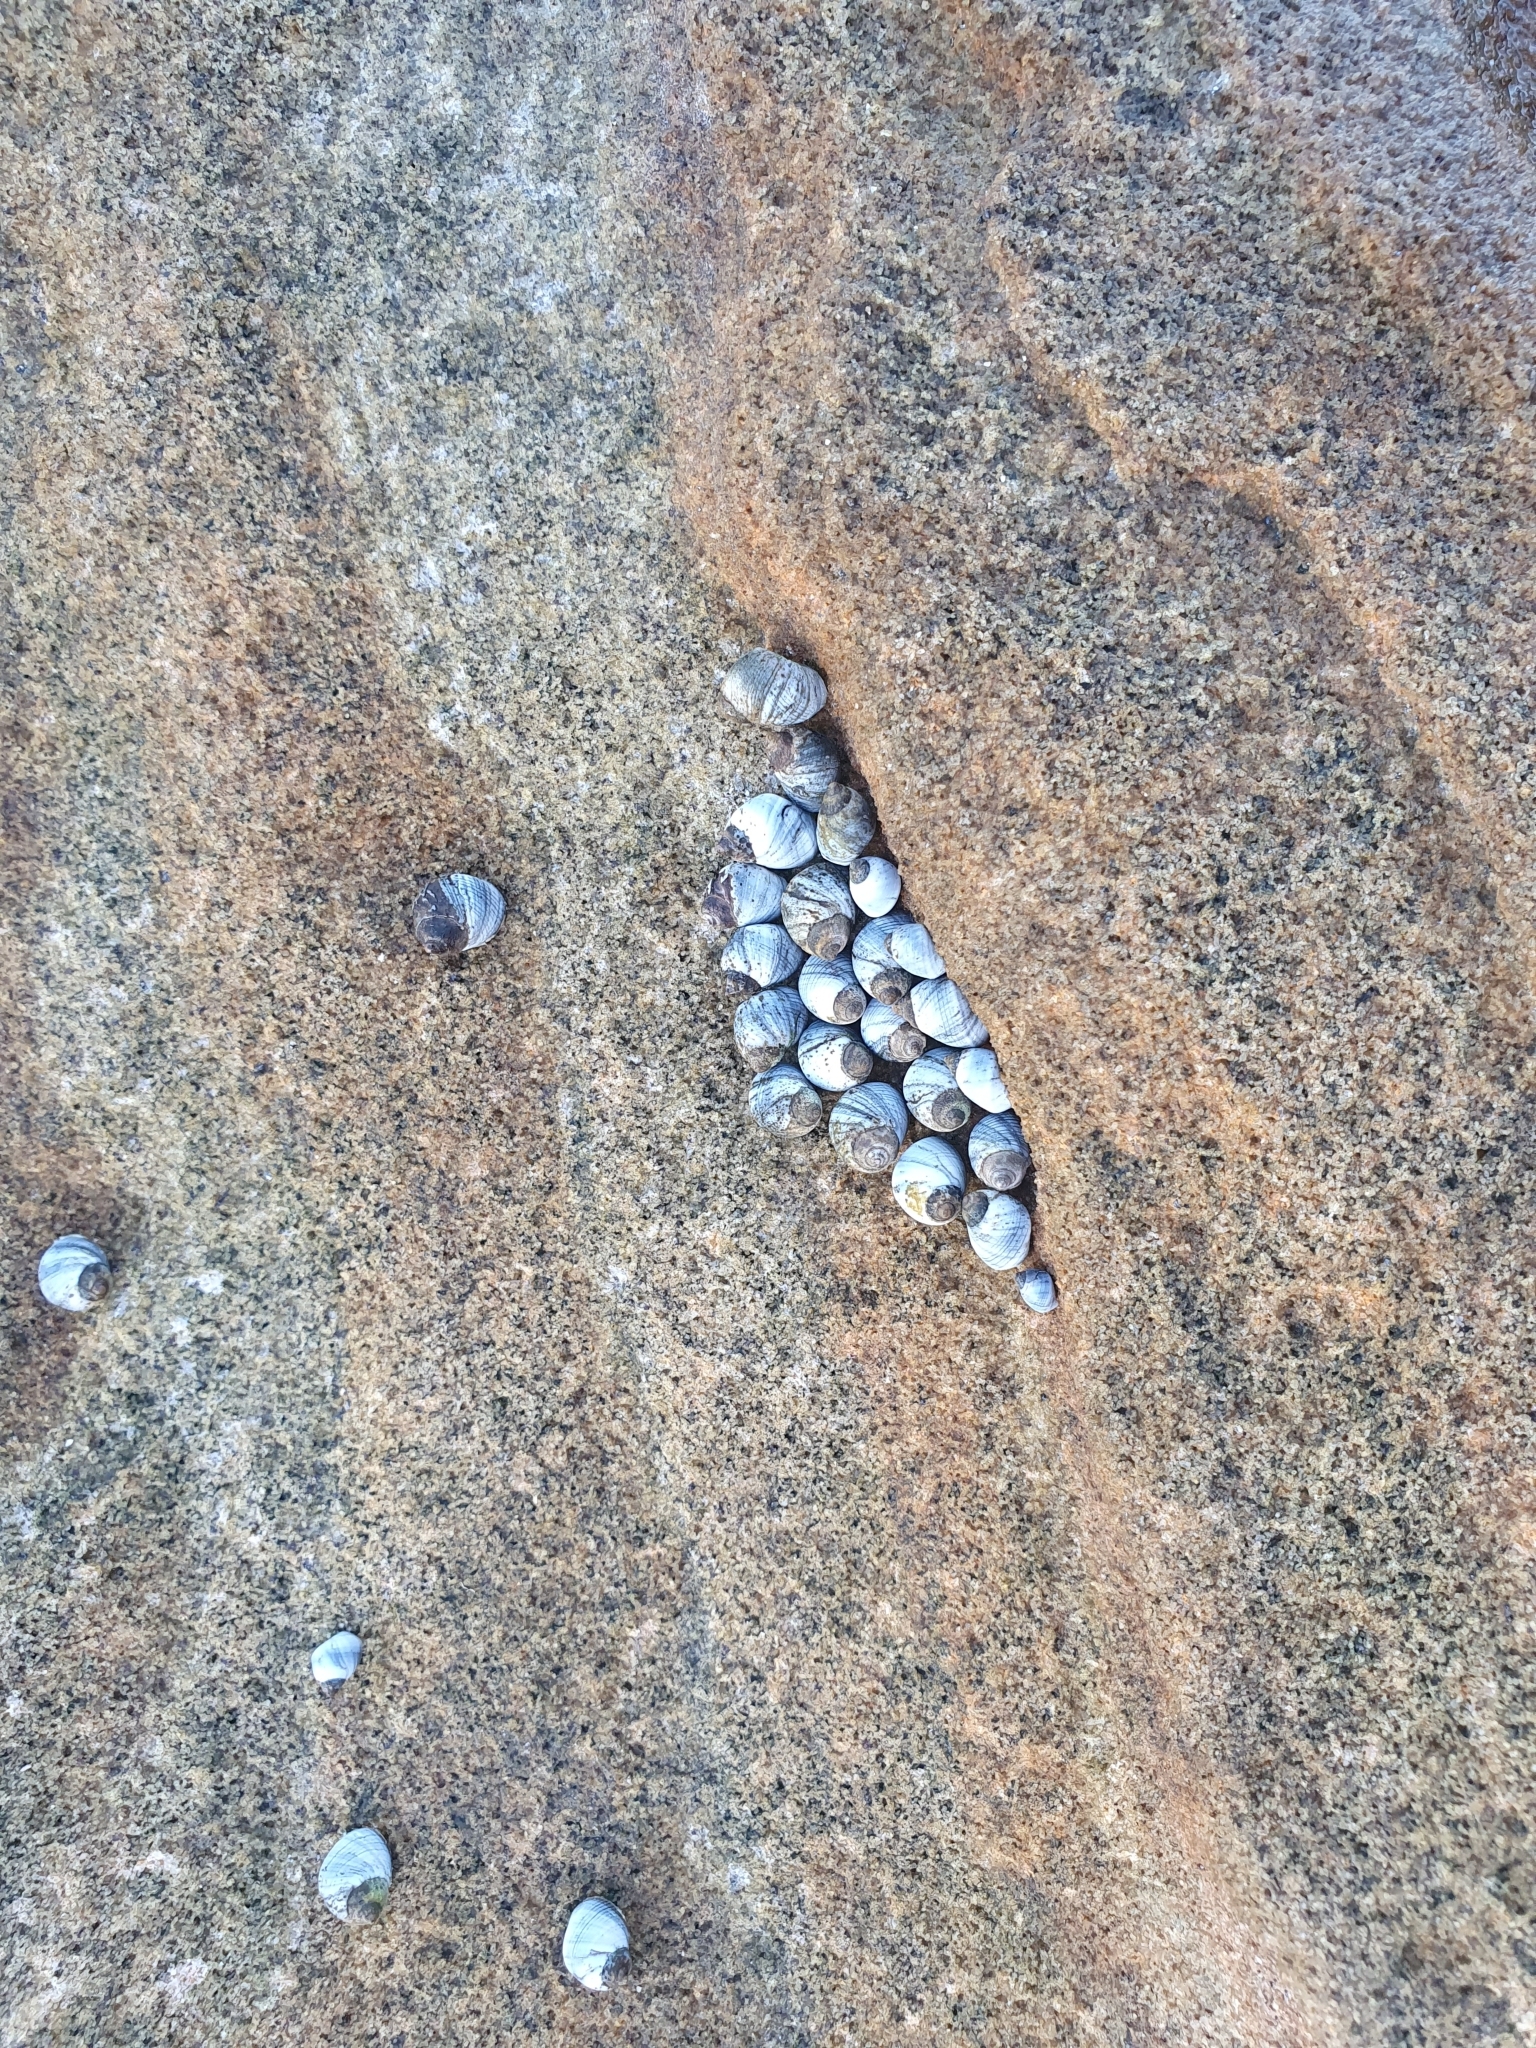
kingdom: Animalia
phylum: Mollusca
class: Gastropoda
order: Littorinimorpha
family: Littorinidae
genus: Austrolittorina
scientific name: Austrolittorina unifasciata
